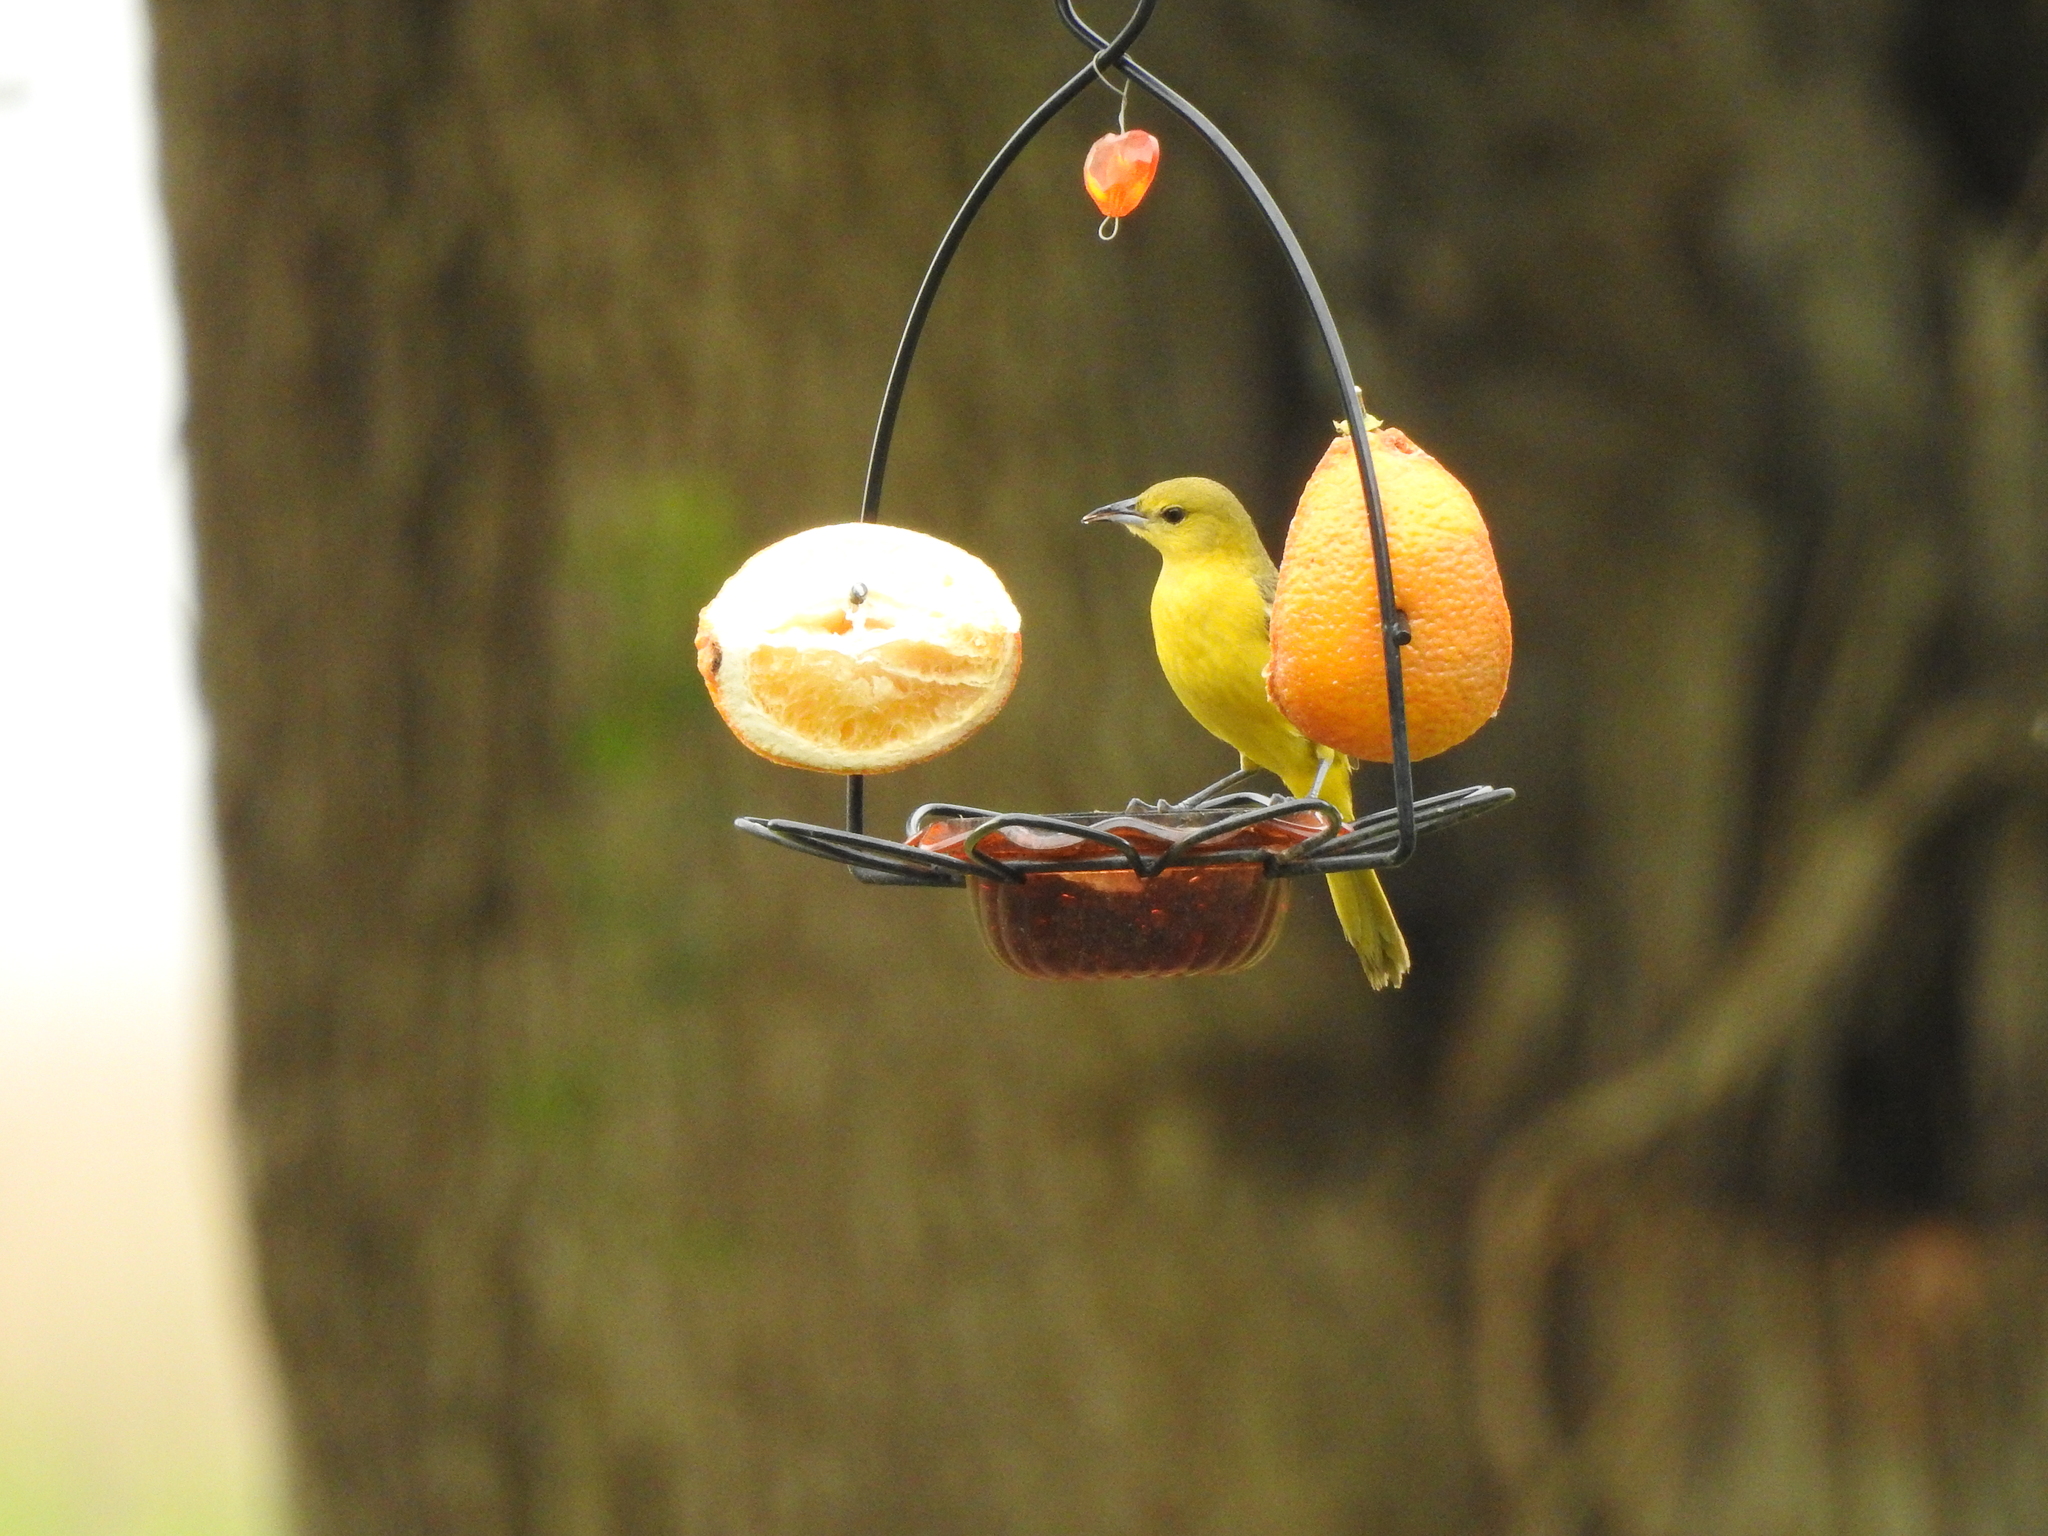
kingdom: Animalia
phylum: Chordata
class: Aves
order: Passeriformes
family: Icteridae
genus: Icterus
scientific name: Icterus spurius
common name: Orchard oriole
